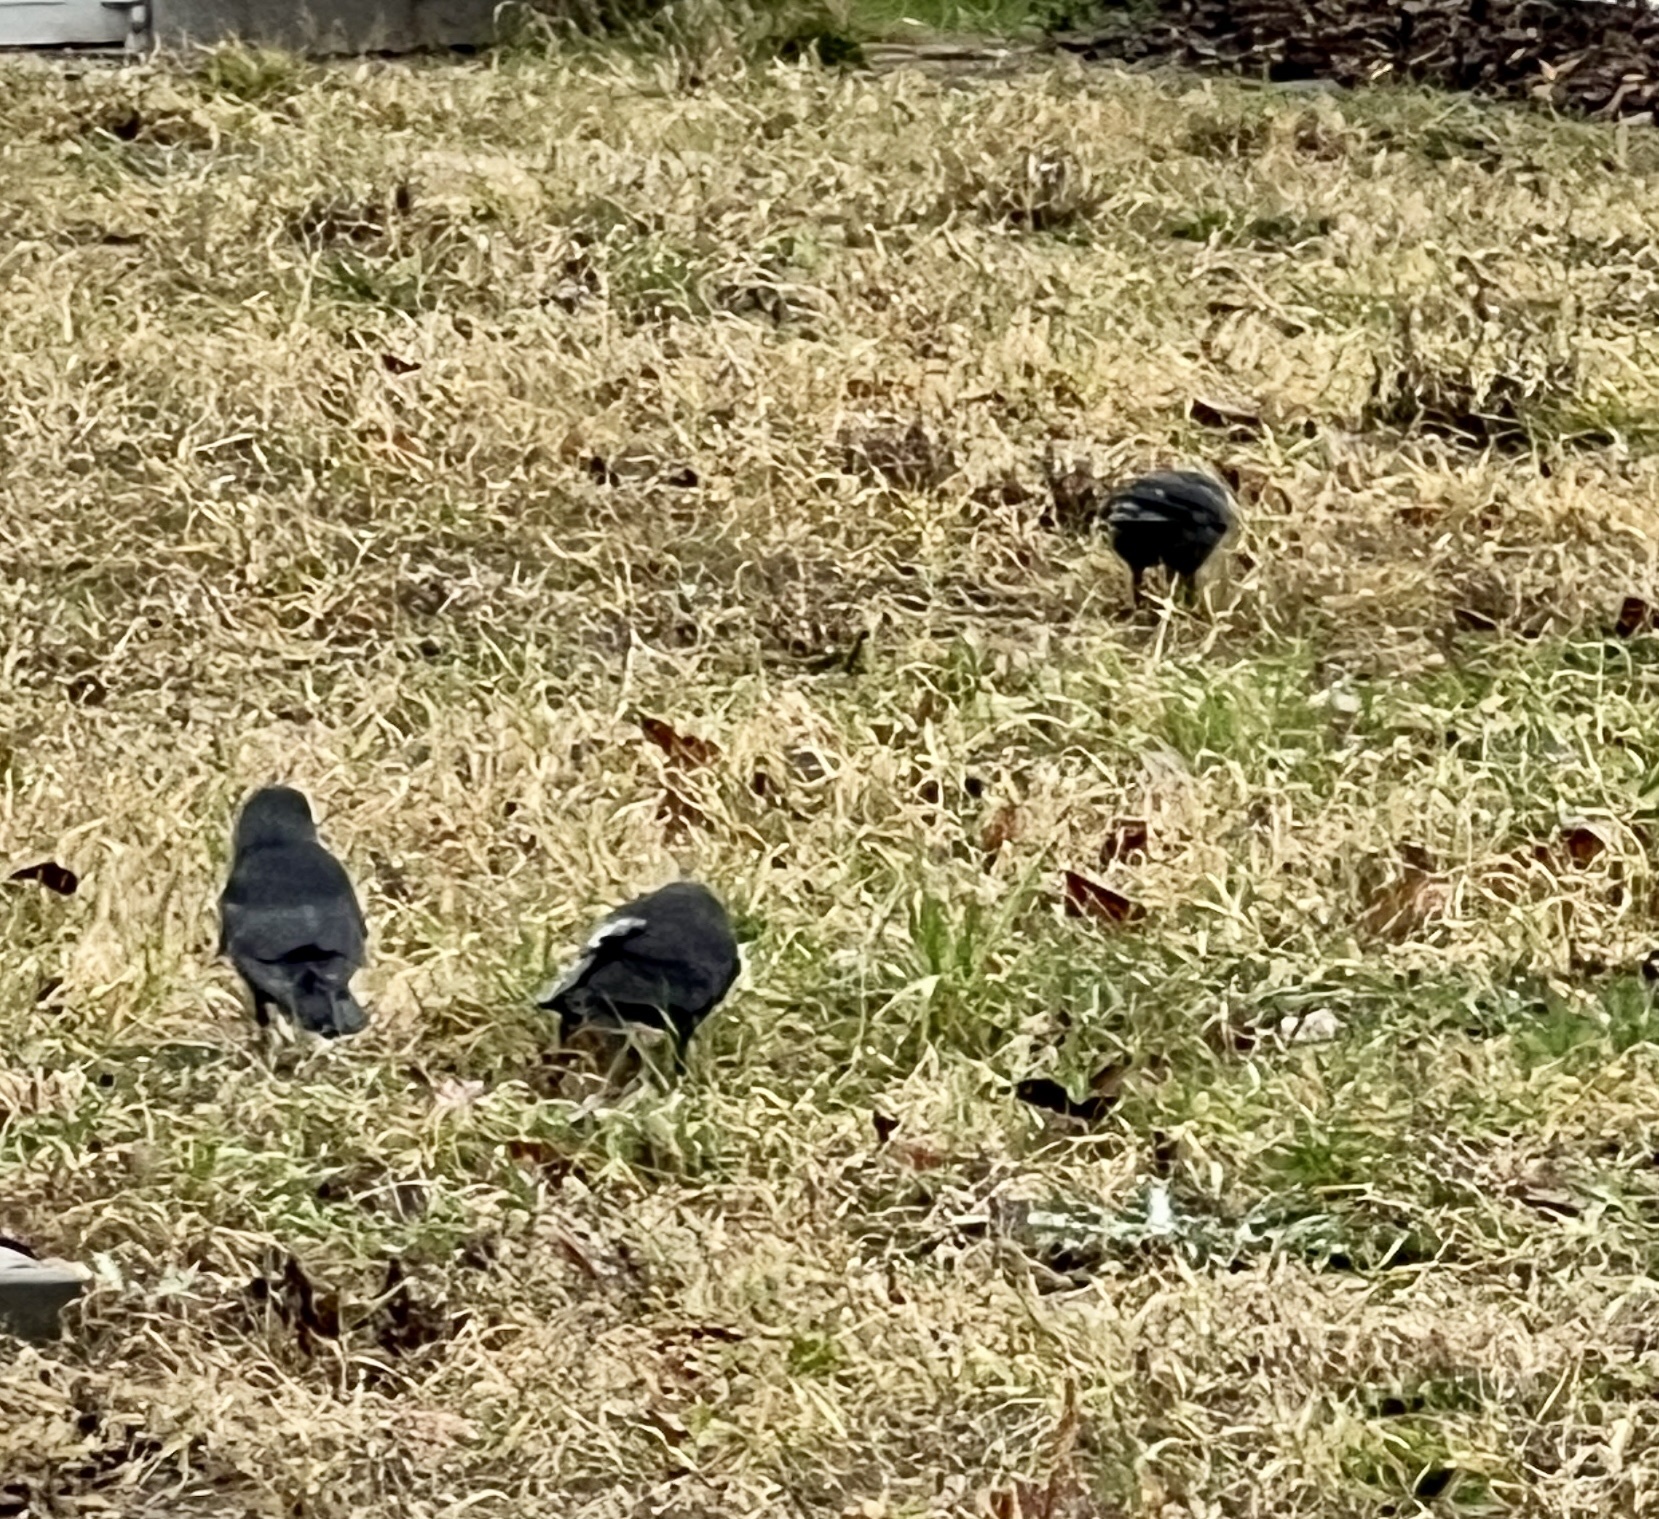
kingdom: Animalia
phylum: Chordata
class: Aves
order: Passeriformes
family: Corvidae
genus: Coloeus
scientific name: Coloeus monedula
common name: Western jackdaw
